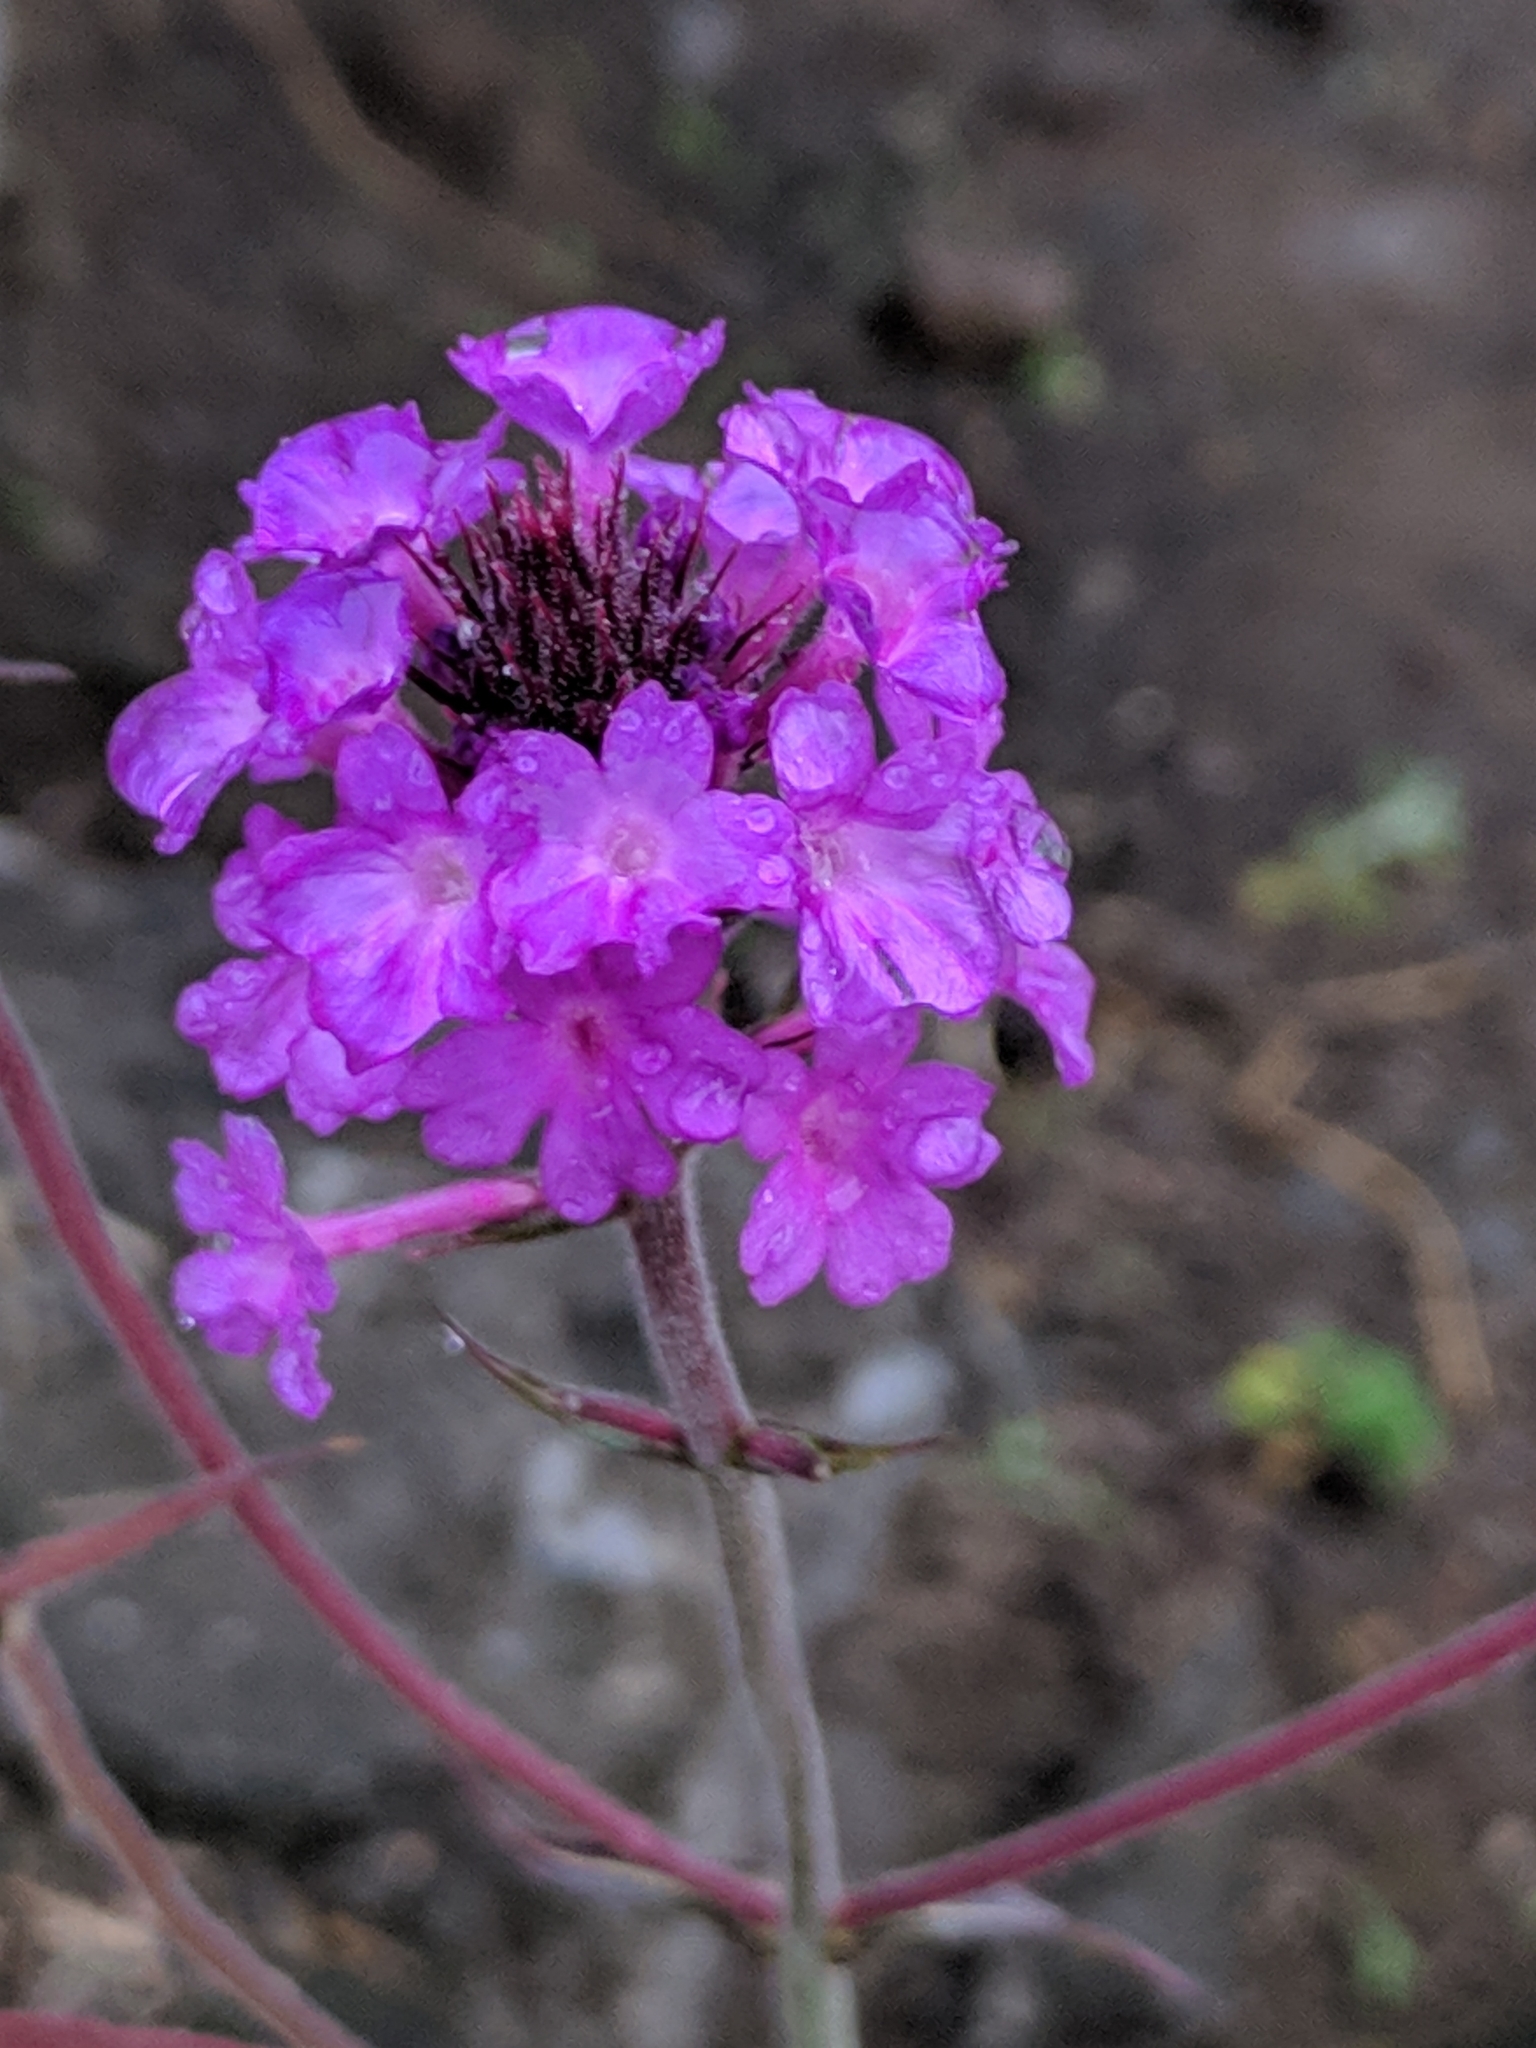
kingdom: Plantae
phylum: Tracheophyta
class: Magnoliopsida
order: Lamiales
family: Verbenaceae
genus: Verbena
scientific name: Verbena rigida
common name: Slender vervain
